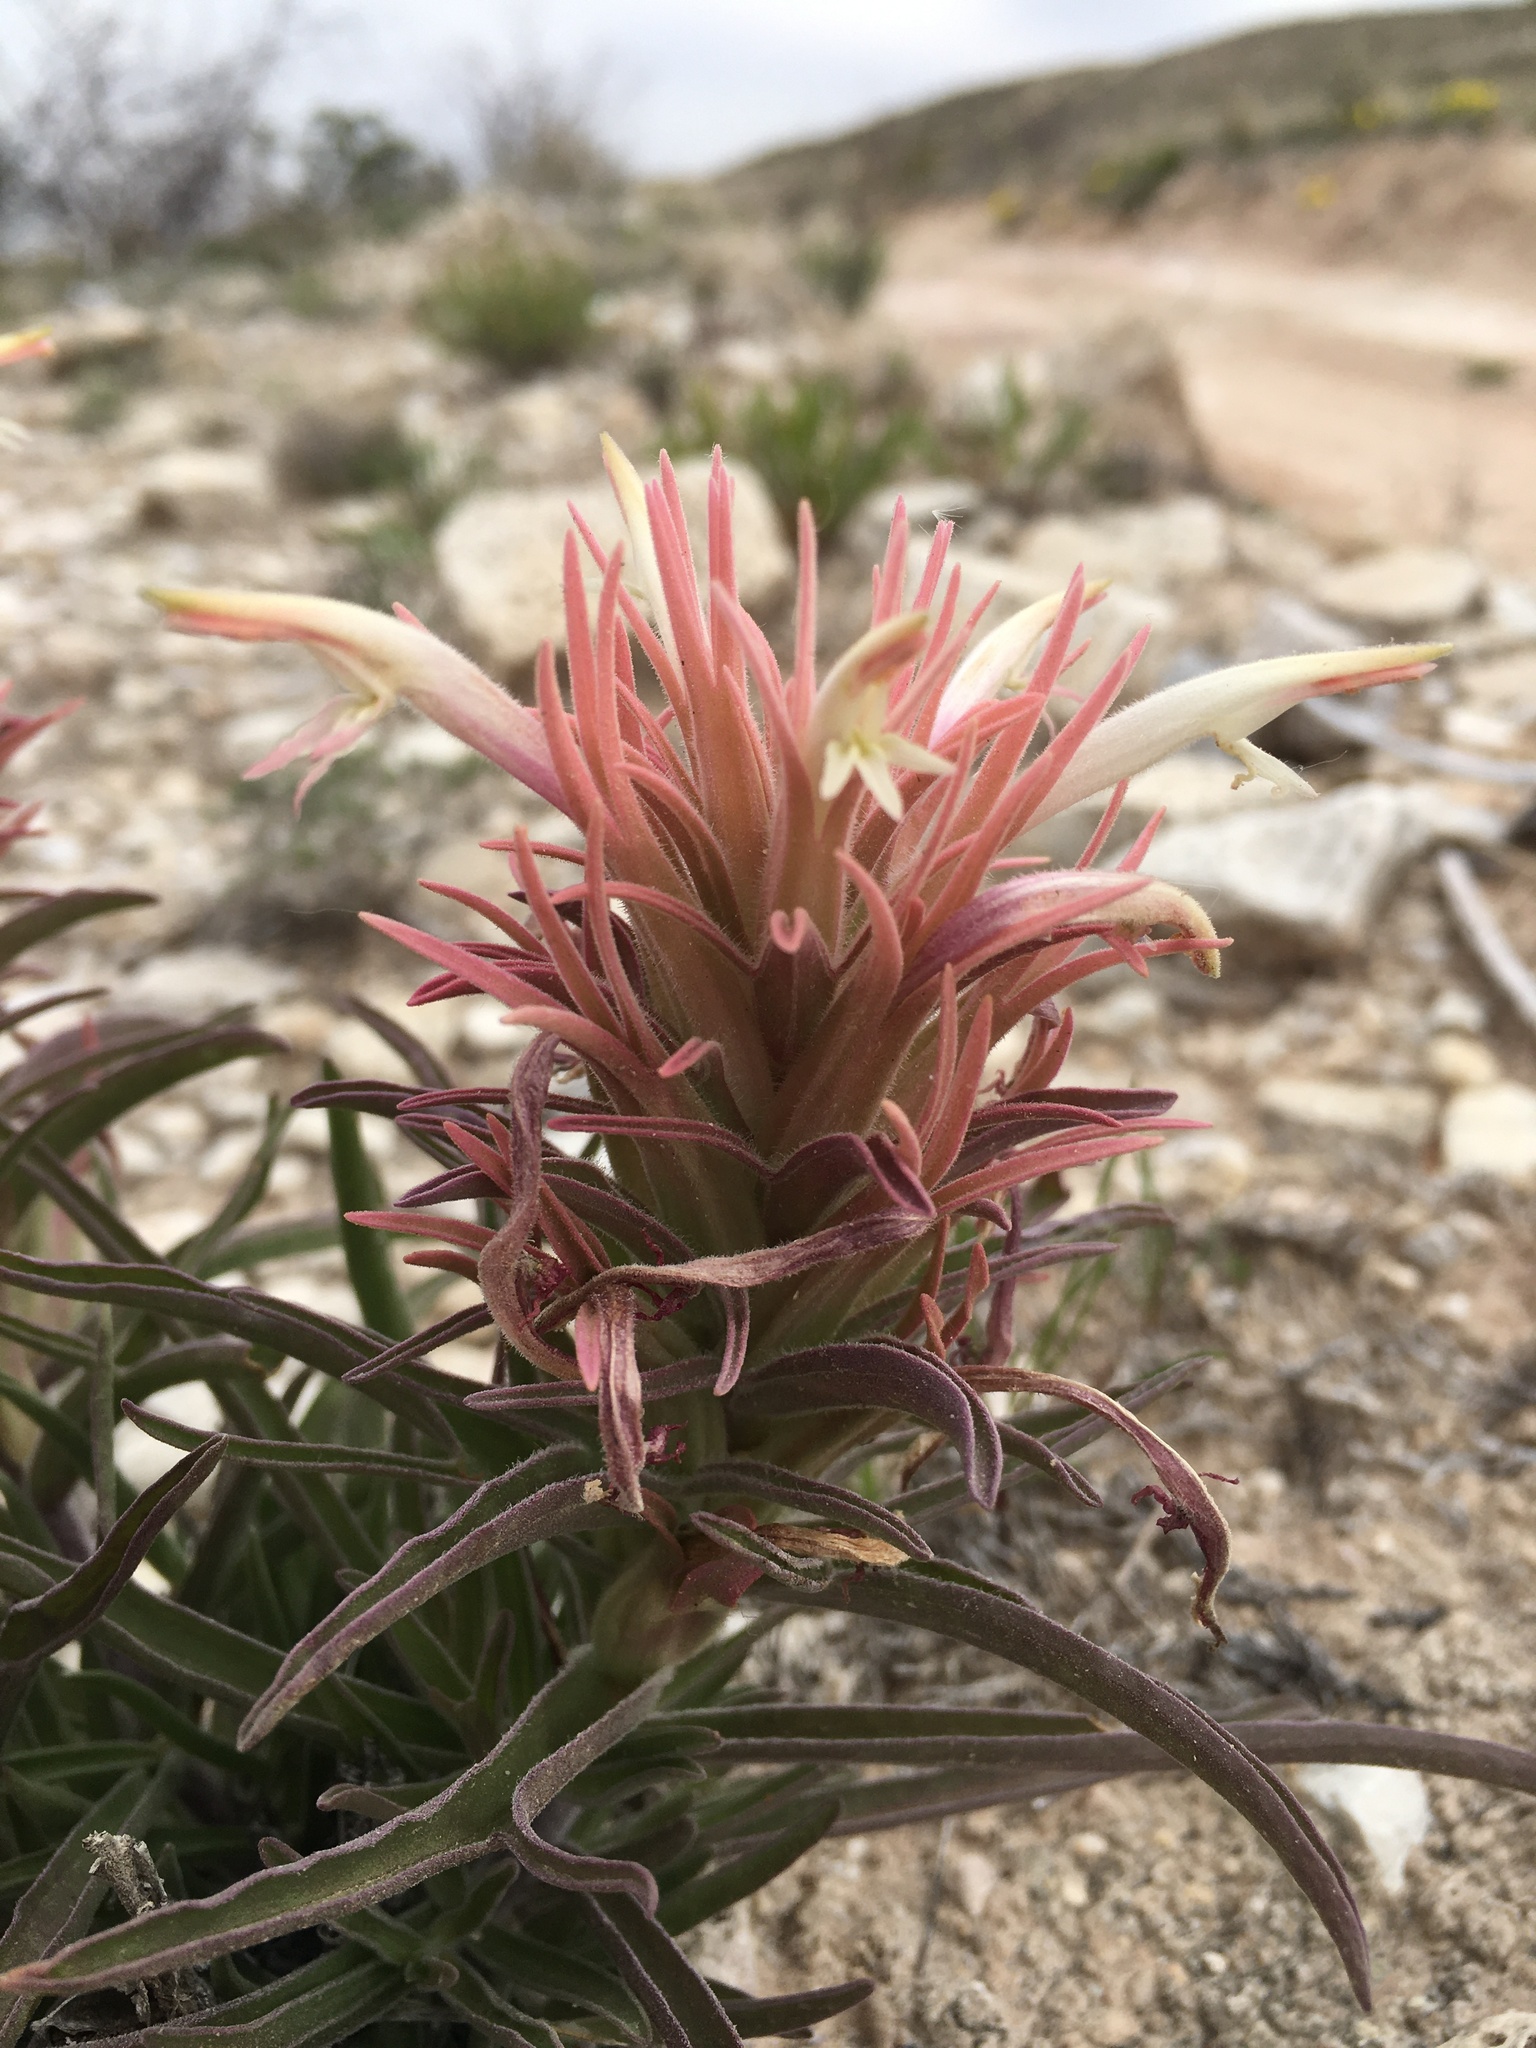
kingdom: Plantae
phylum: Tracheophyta
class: Magnoliopsida
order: Lamiales
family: Orobanchaceae
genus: Castilleja
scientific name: Castilleja sessiliflora
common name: Downy paintbrush
